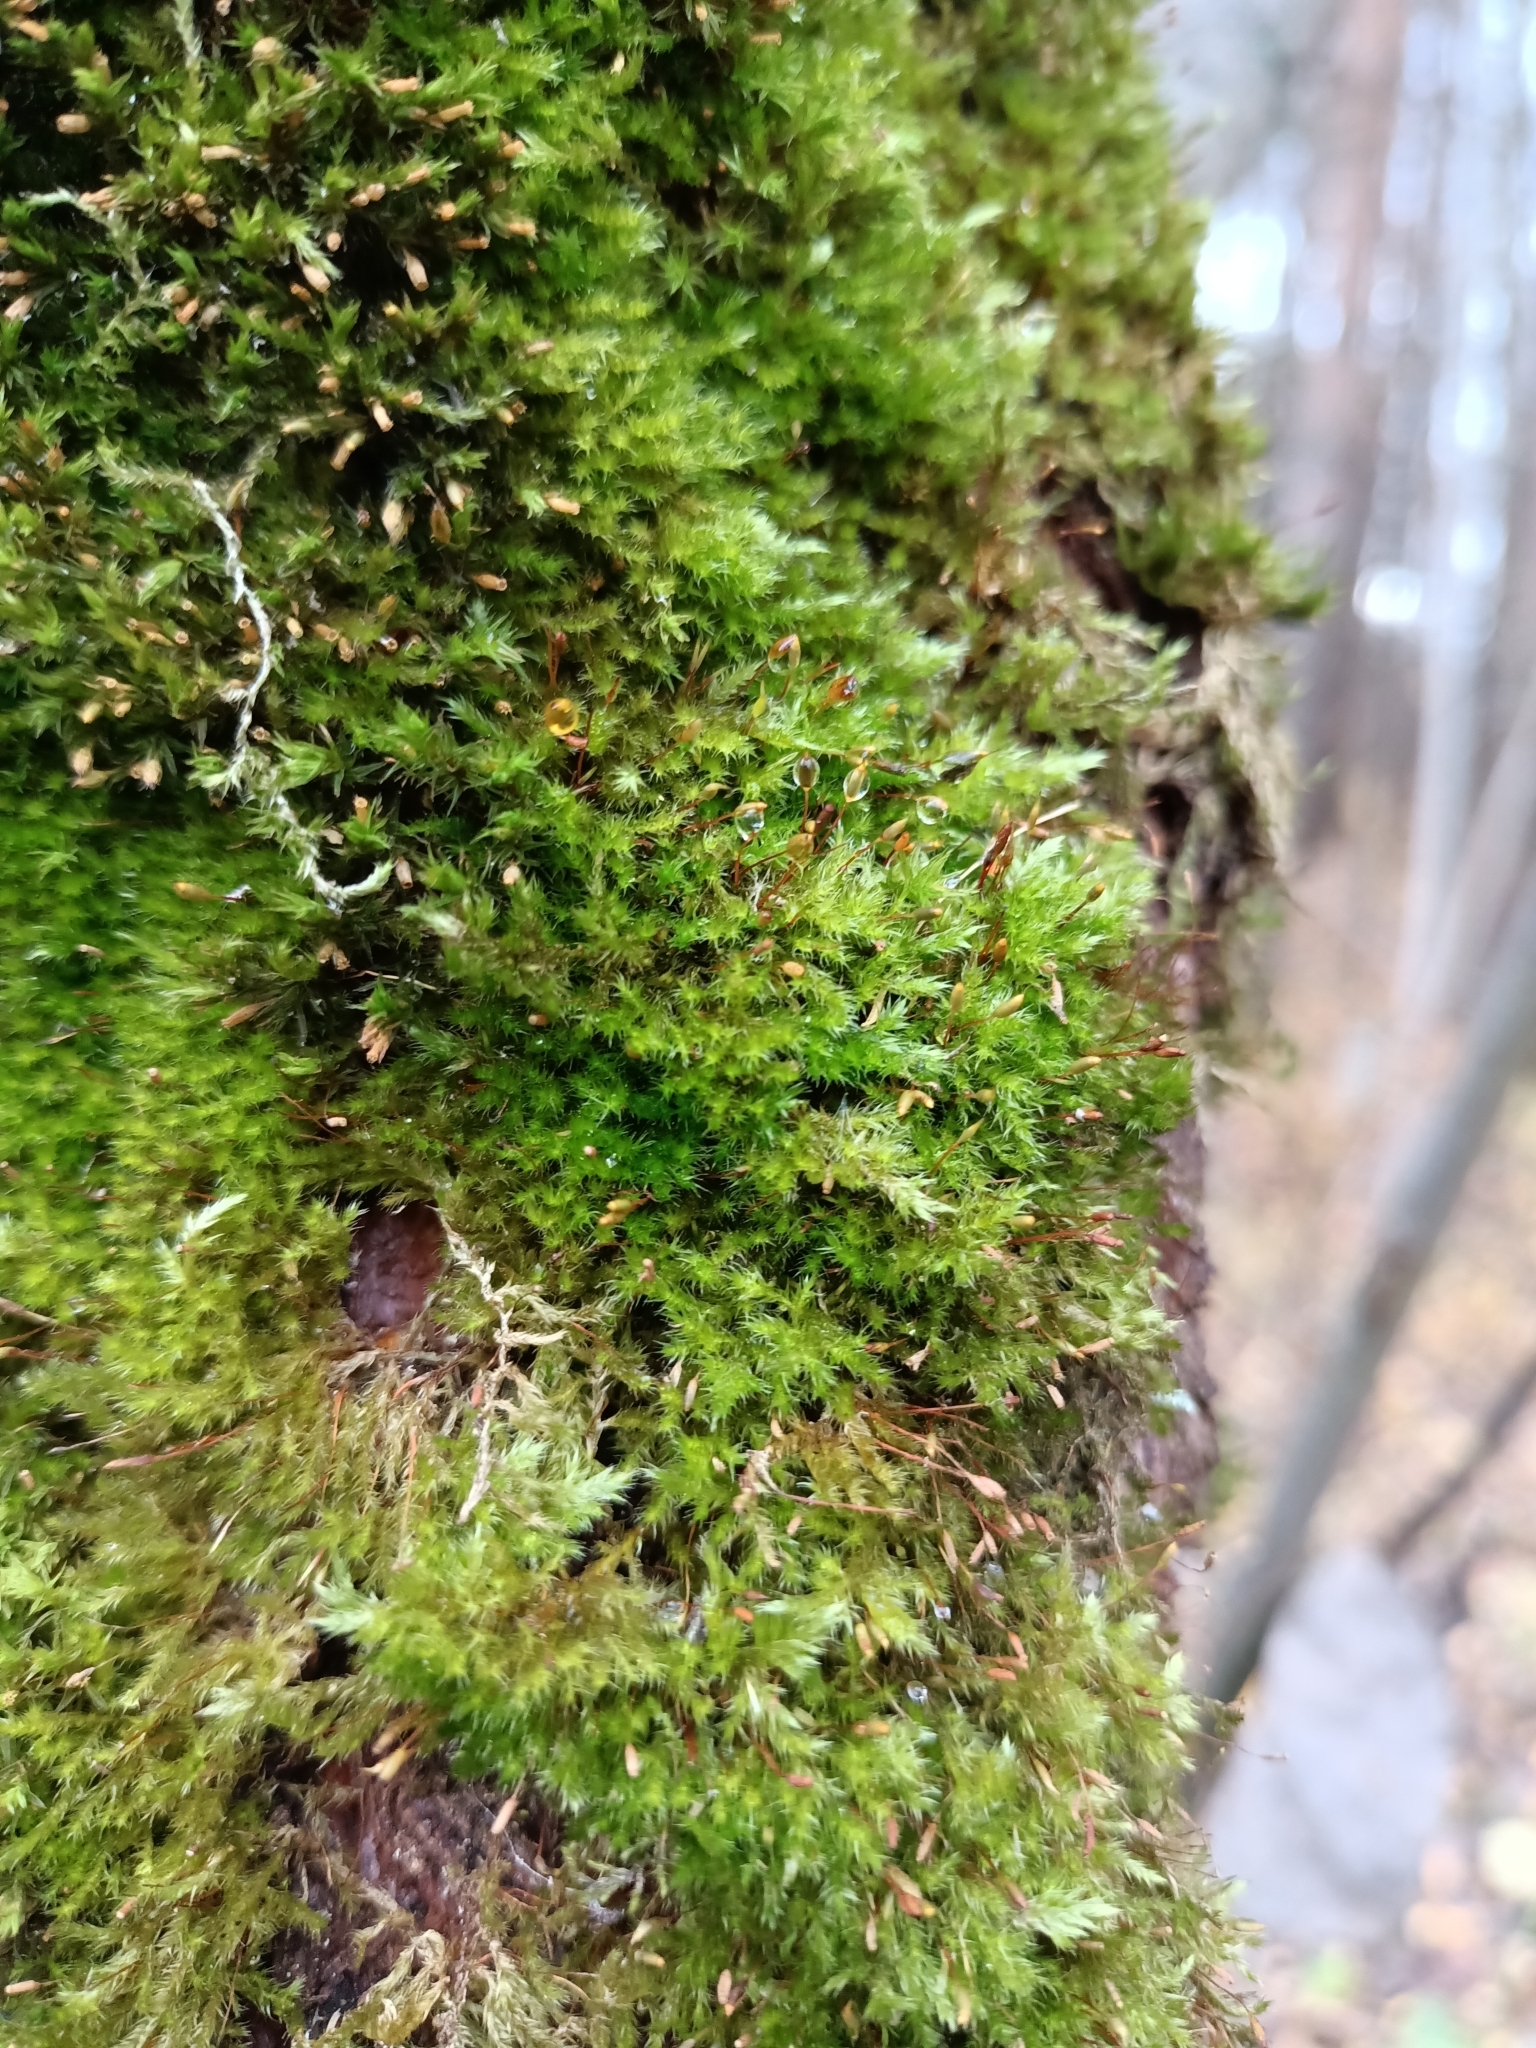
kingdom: Plantae
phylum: Bryophyta
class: Bryopsida
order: Hypnales
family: Pylaisiaceae
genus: Pylaisia
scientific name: Pylaisia polyantha
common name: Many-flowered leskea
